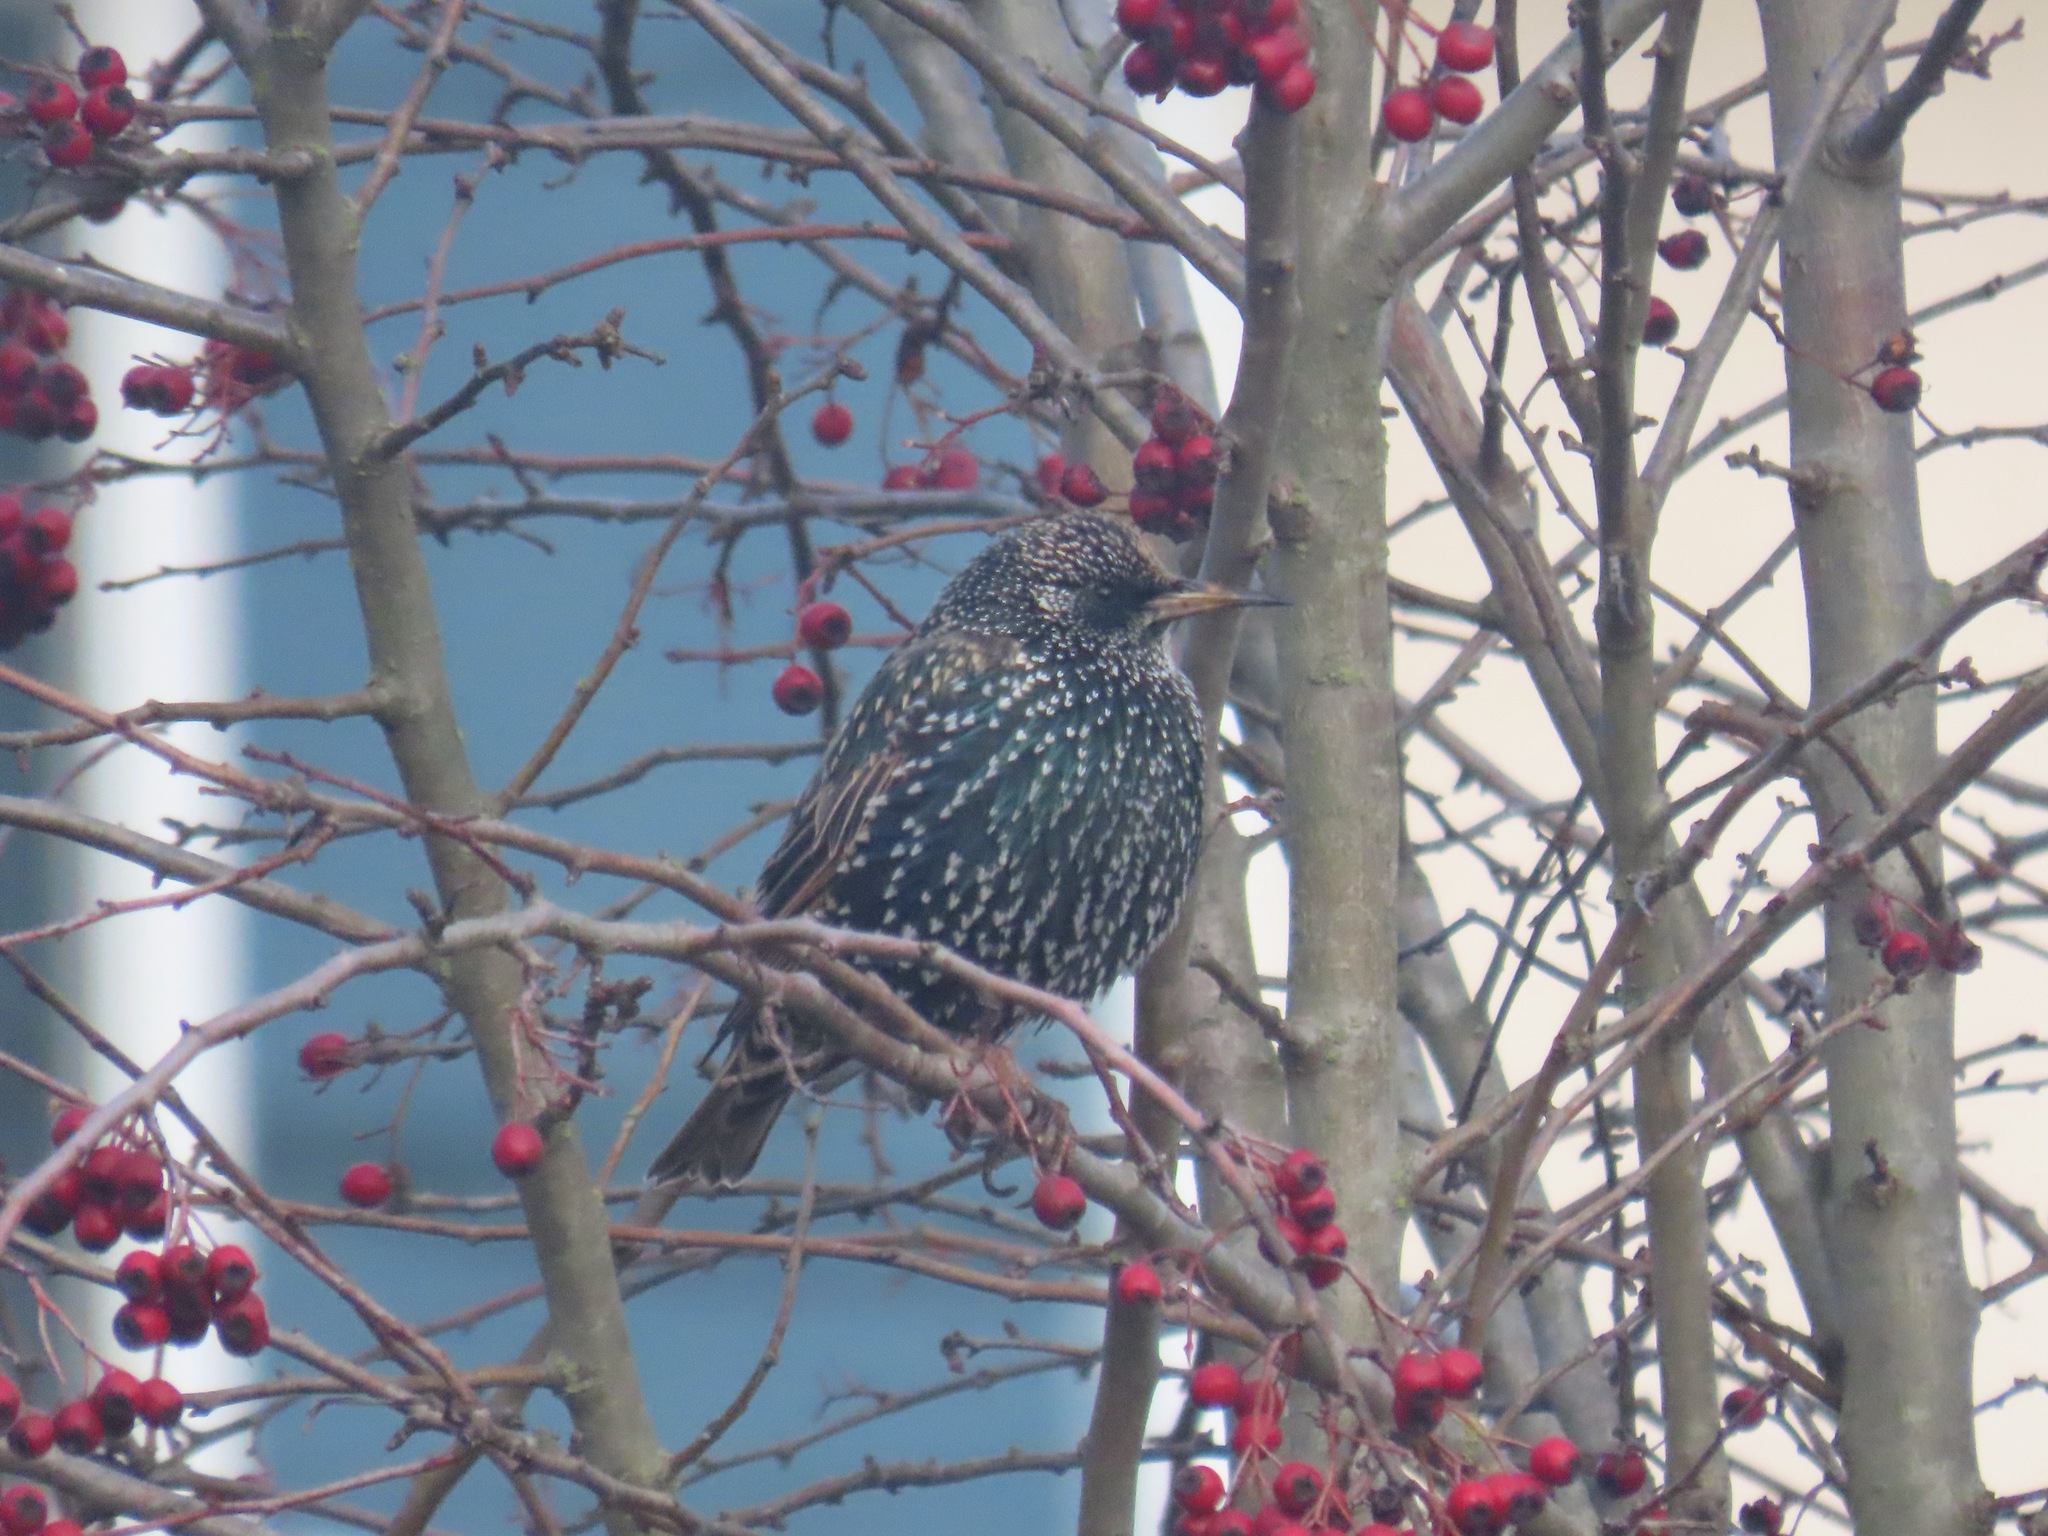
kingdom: Animalia
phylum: Chordata
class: Aves
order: Passeriformes
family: Sturnidae
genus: Sturnus
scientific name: Sturnus vulgaris
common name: Common starling
